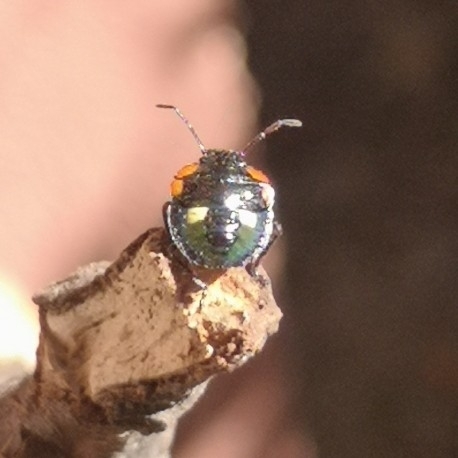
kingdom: Animalia
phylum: Arthropoda
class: Insecta
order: Hemiptera
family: Pentatomidae
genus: Chinavia
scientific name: Chinavia
